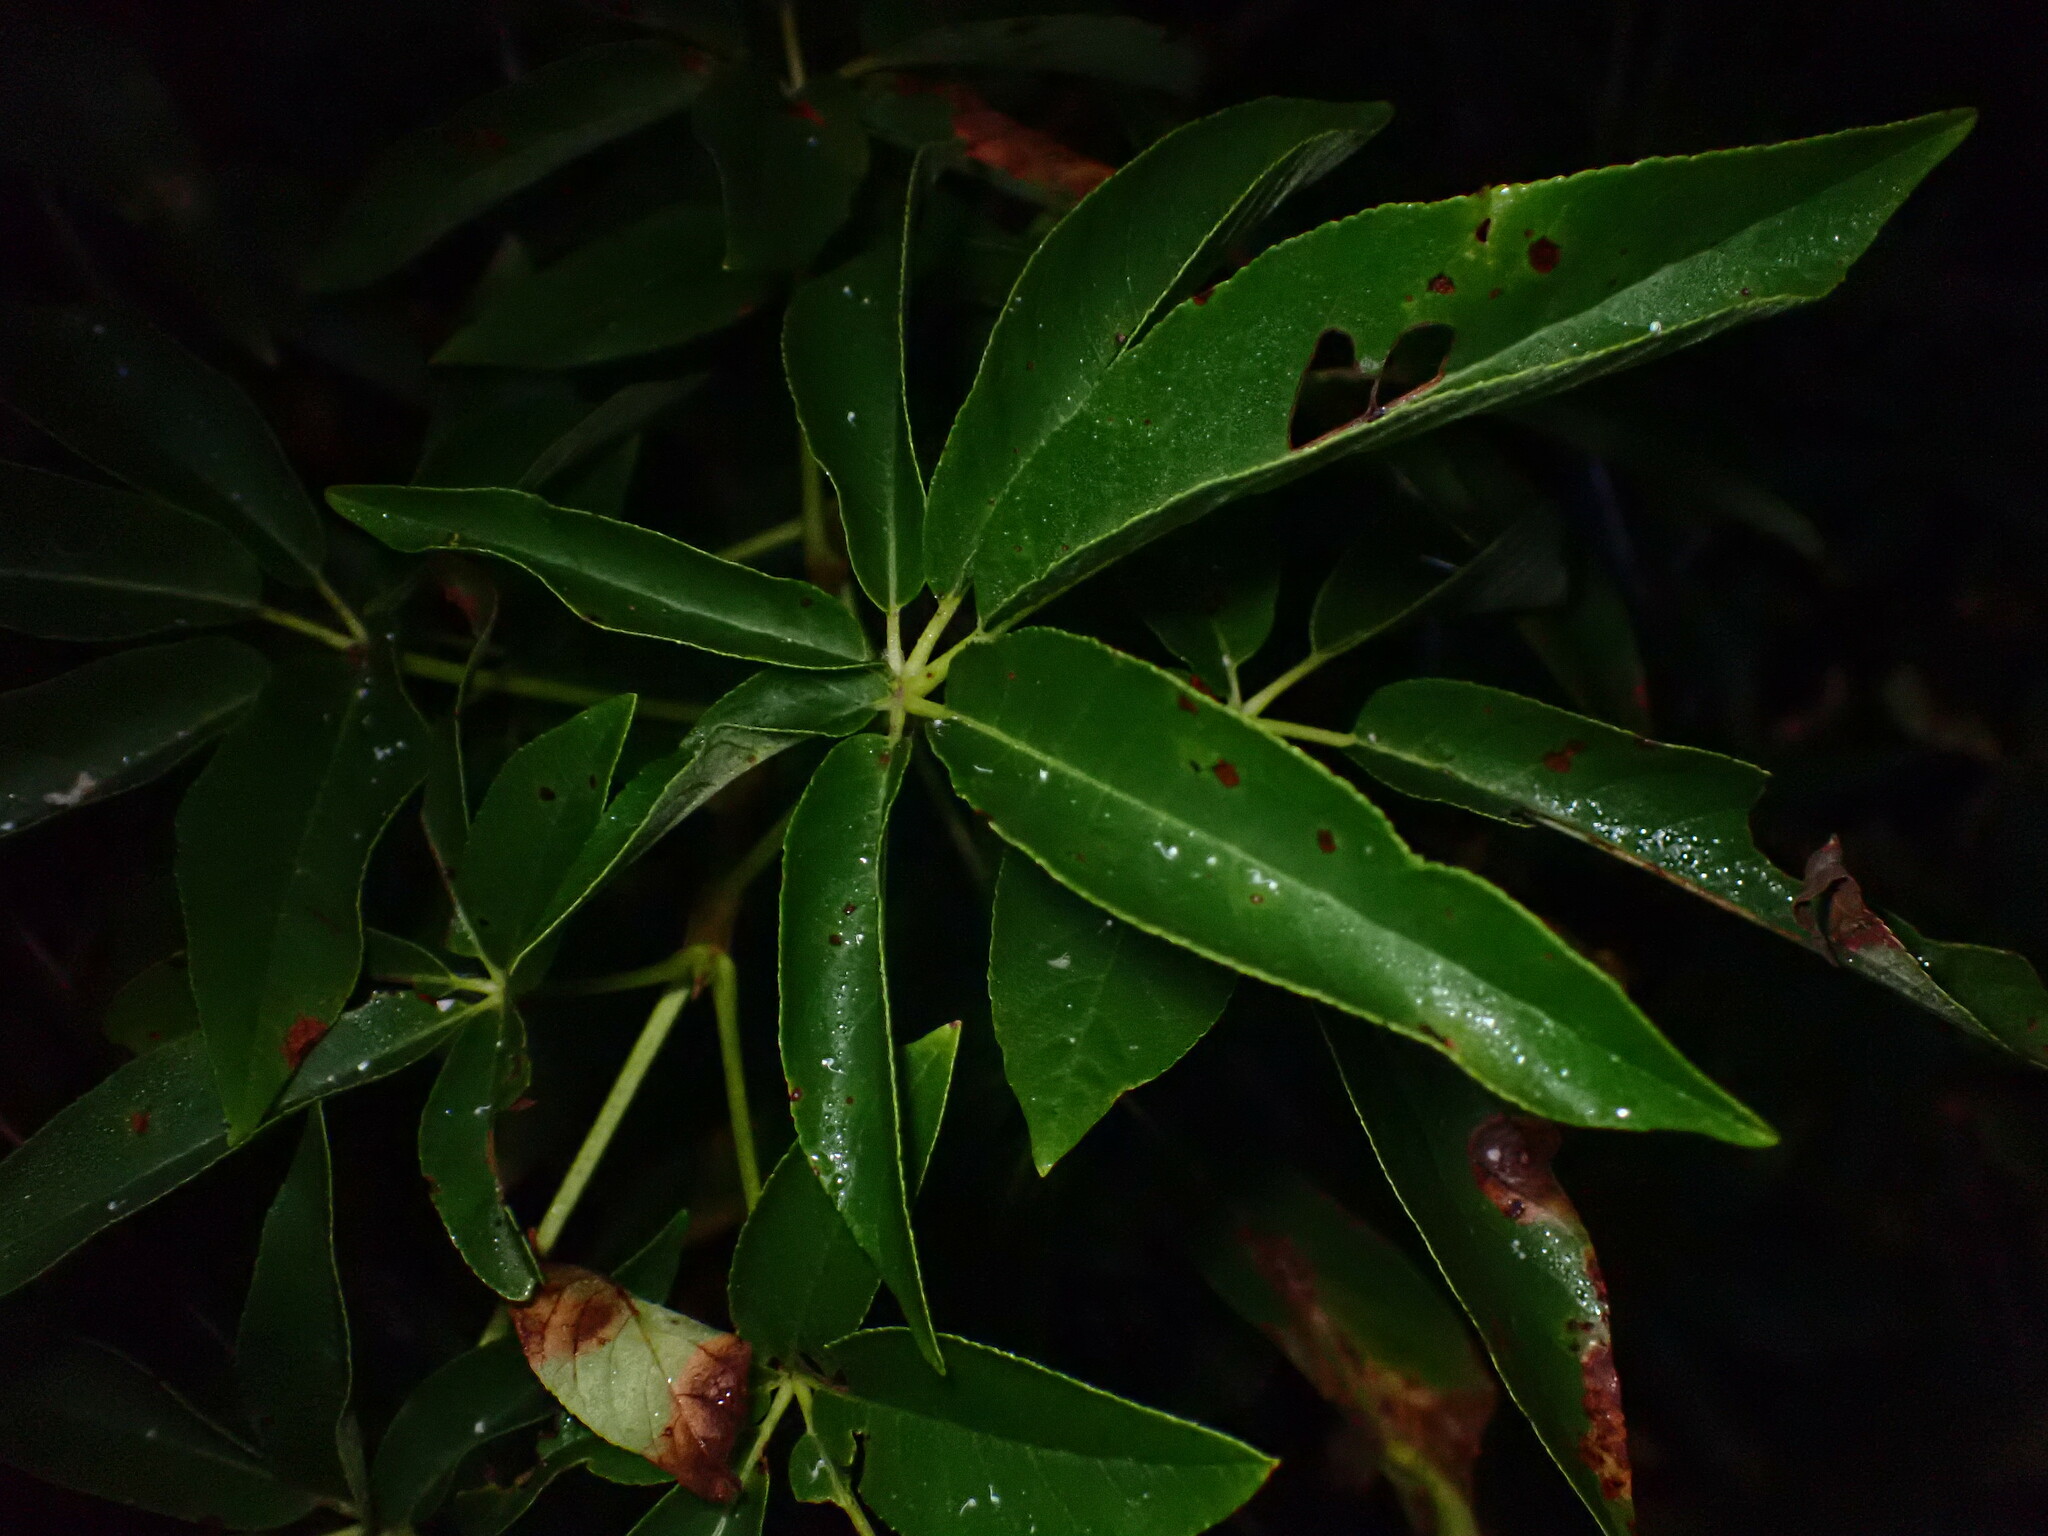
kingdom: Plantae
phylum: Tracheophyta
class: Magnoliopsida
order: Sapindales
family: Sapindaceae
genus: Aesculus
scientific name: Aesculus californica
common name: California buckeye
